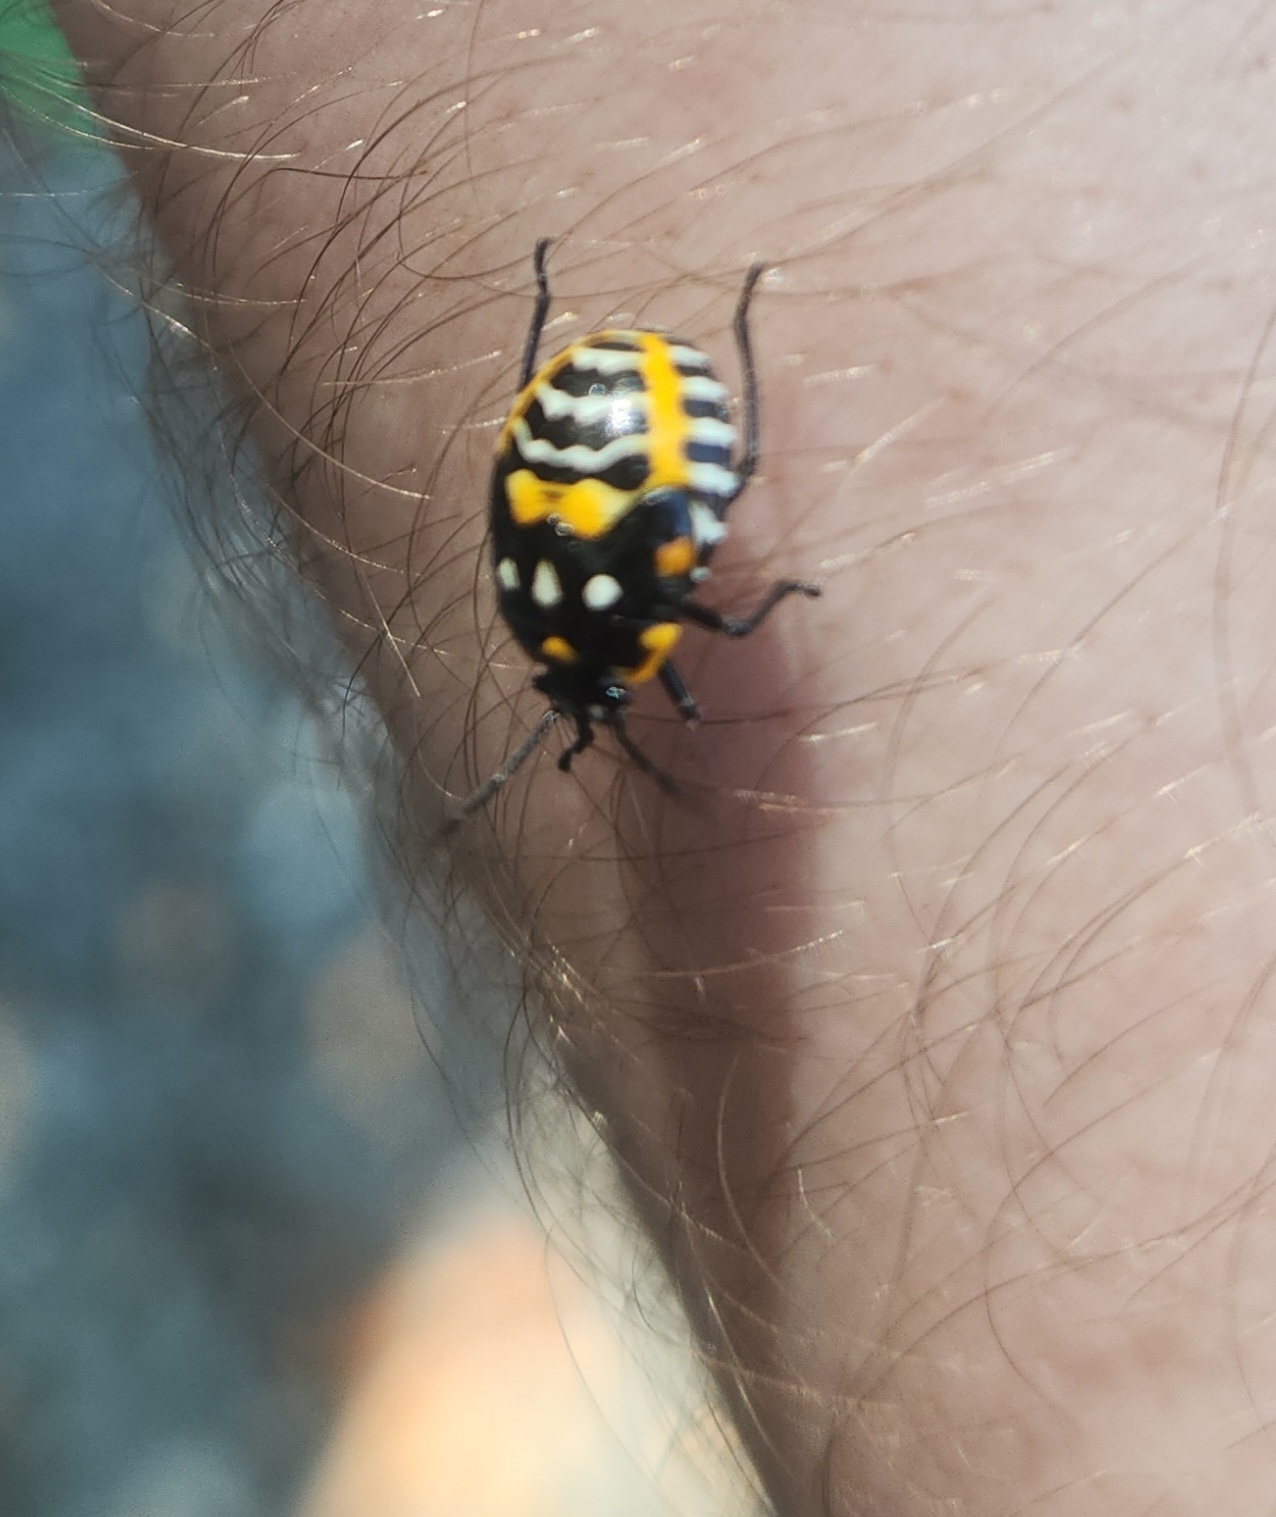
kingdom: Animalia
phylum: Arthropoda
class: Insecta
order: Hemiptera
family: Pentatomidae
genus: Murgantia
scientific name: Murgantia histrionica
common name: Harlequin bug
